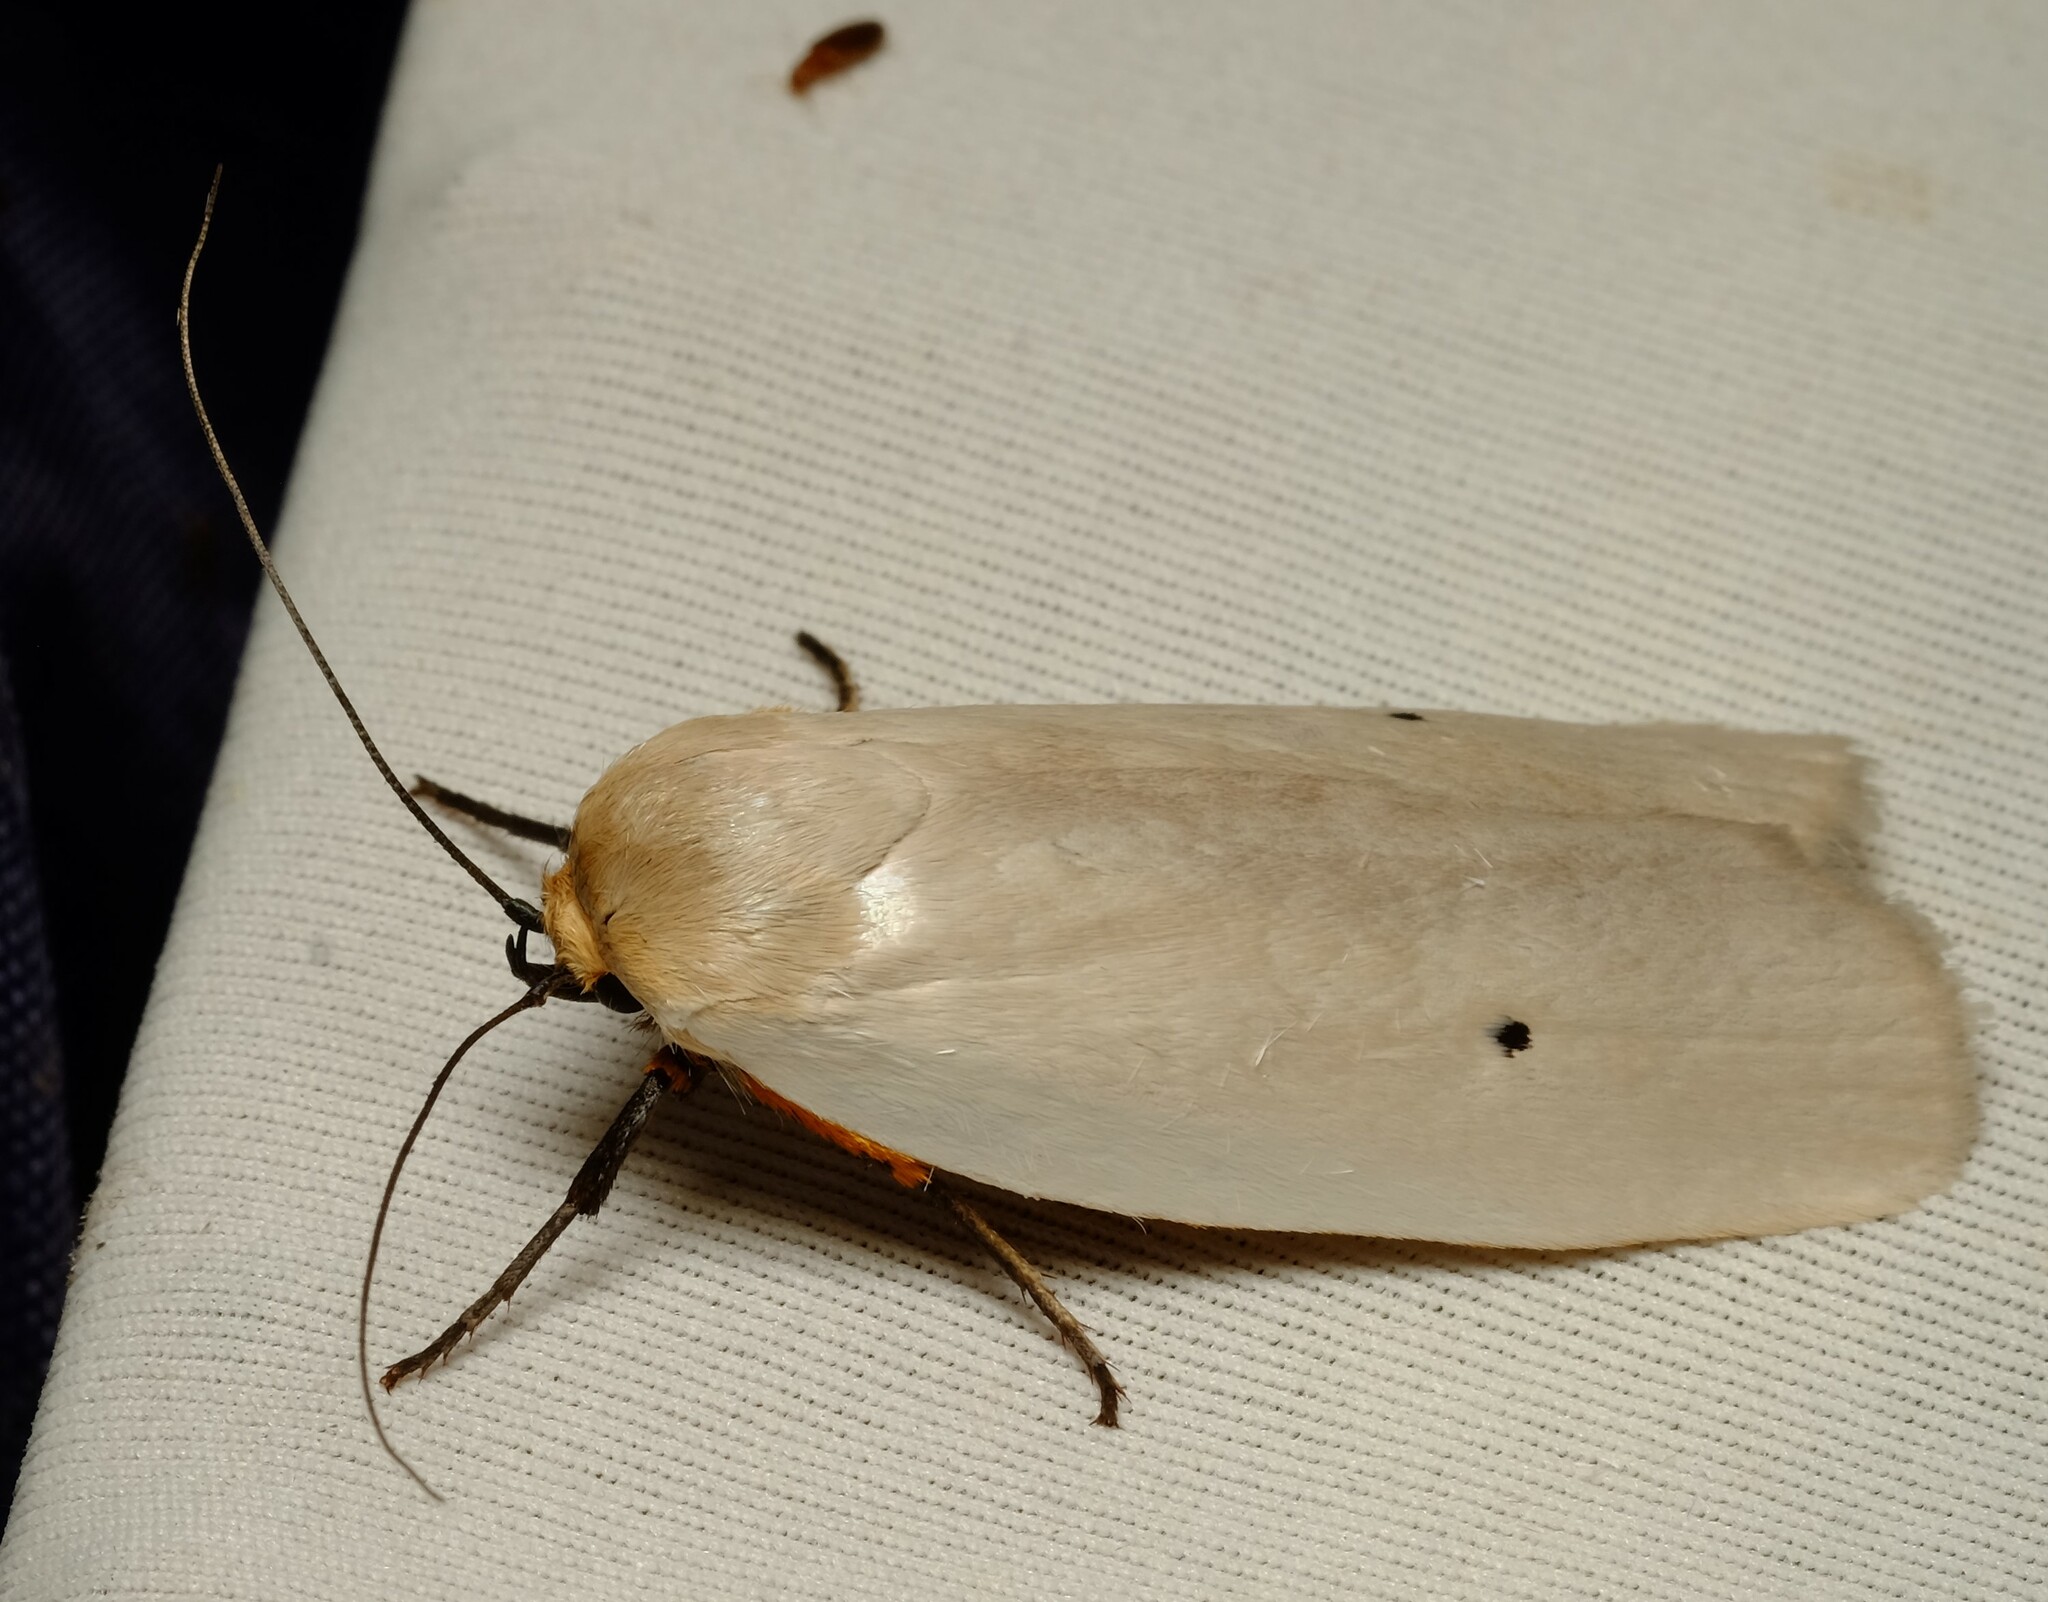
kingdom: Animalia
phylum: Arthropoda
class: Insecta
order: Lepidoptera
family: Xyloryctidae
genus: Maroga
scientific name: Maroga melanostigma
